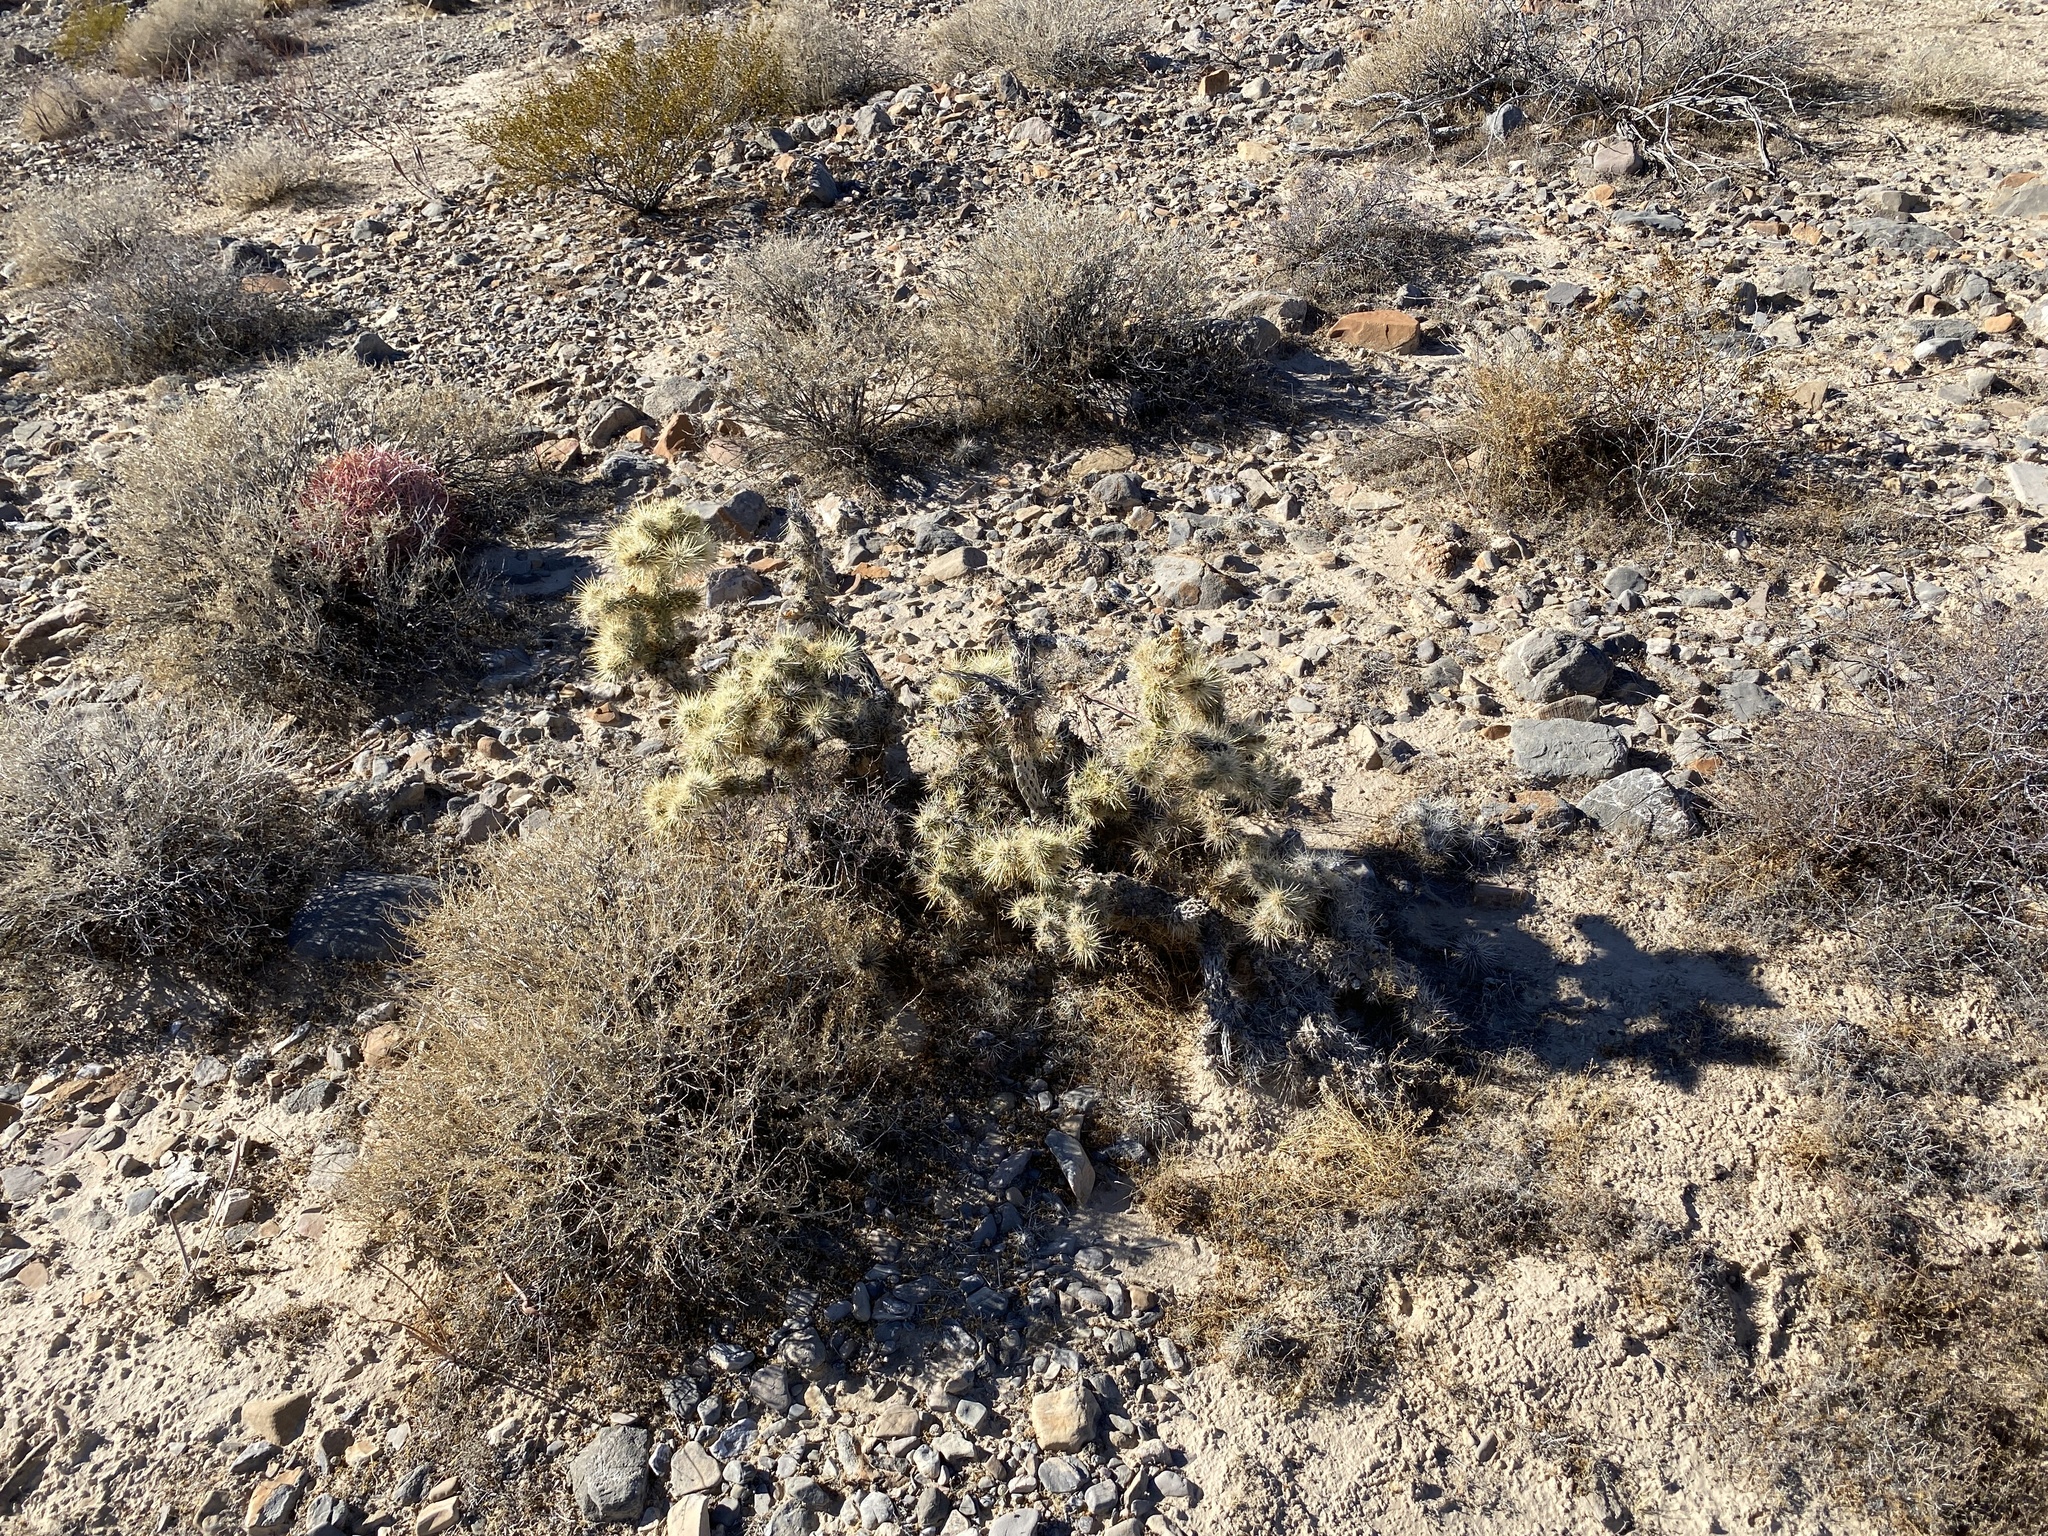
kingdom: Plantae
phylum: Tracheophyta
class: Magnoliopsida
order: Caryophyllales
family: Cactaceae
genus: Cylindropuntia
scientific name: Cylindropuntia echinocarpa
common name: Ground cholla
